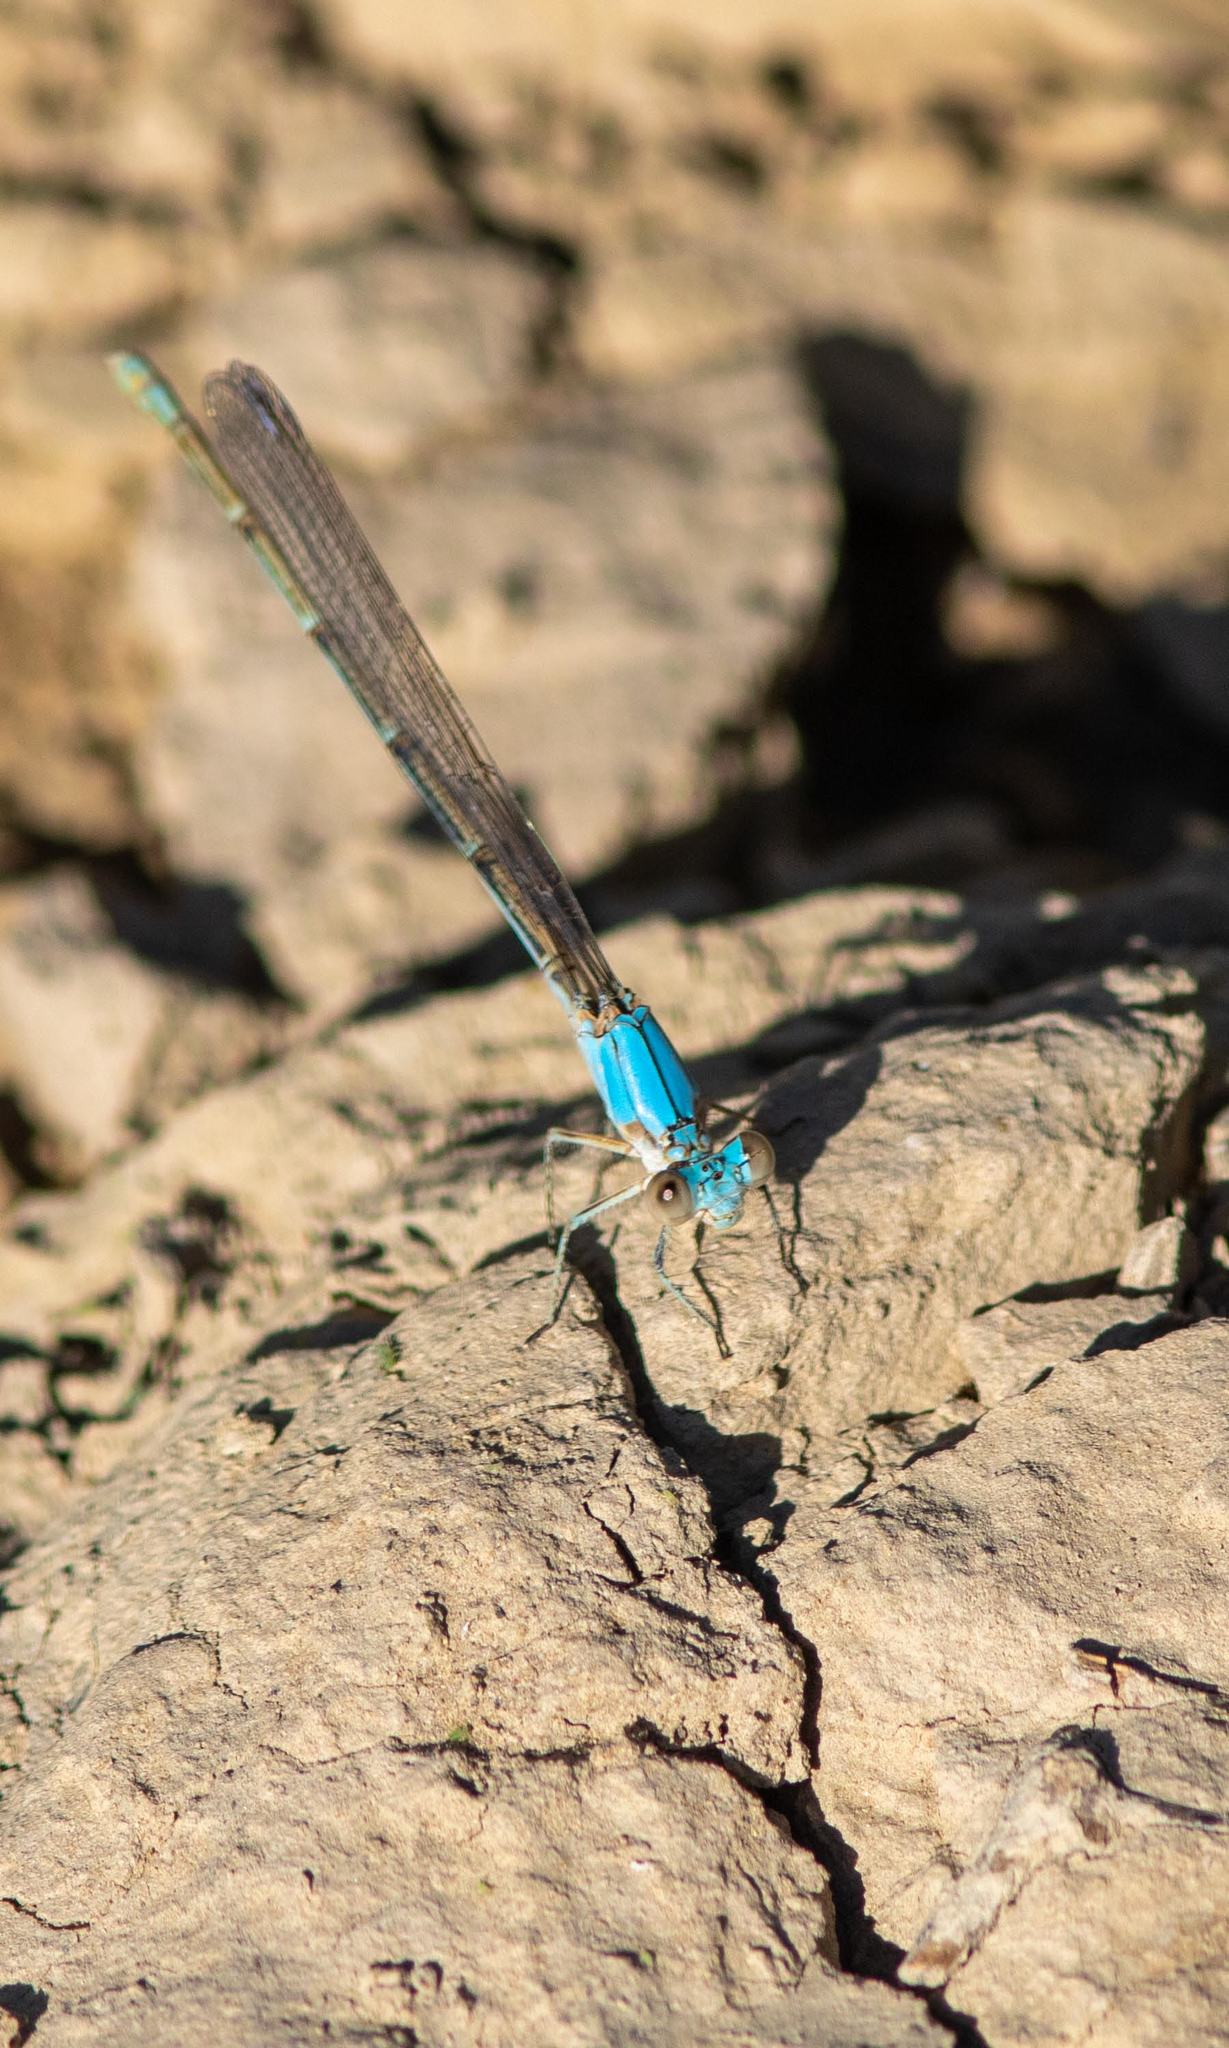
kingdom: Animalia
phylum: Arthropoda
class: Insecta
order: Odonata
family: Coenagrionidae
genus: Argia
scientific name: Argia apicalis
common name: Blue-fronted dancer
